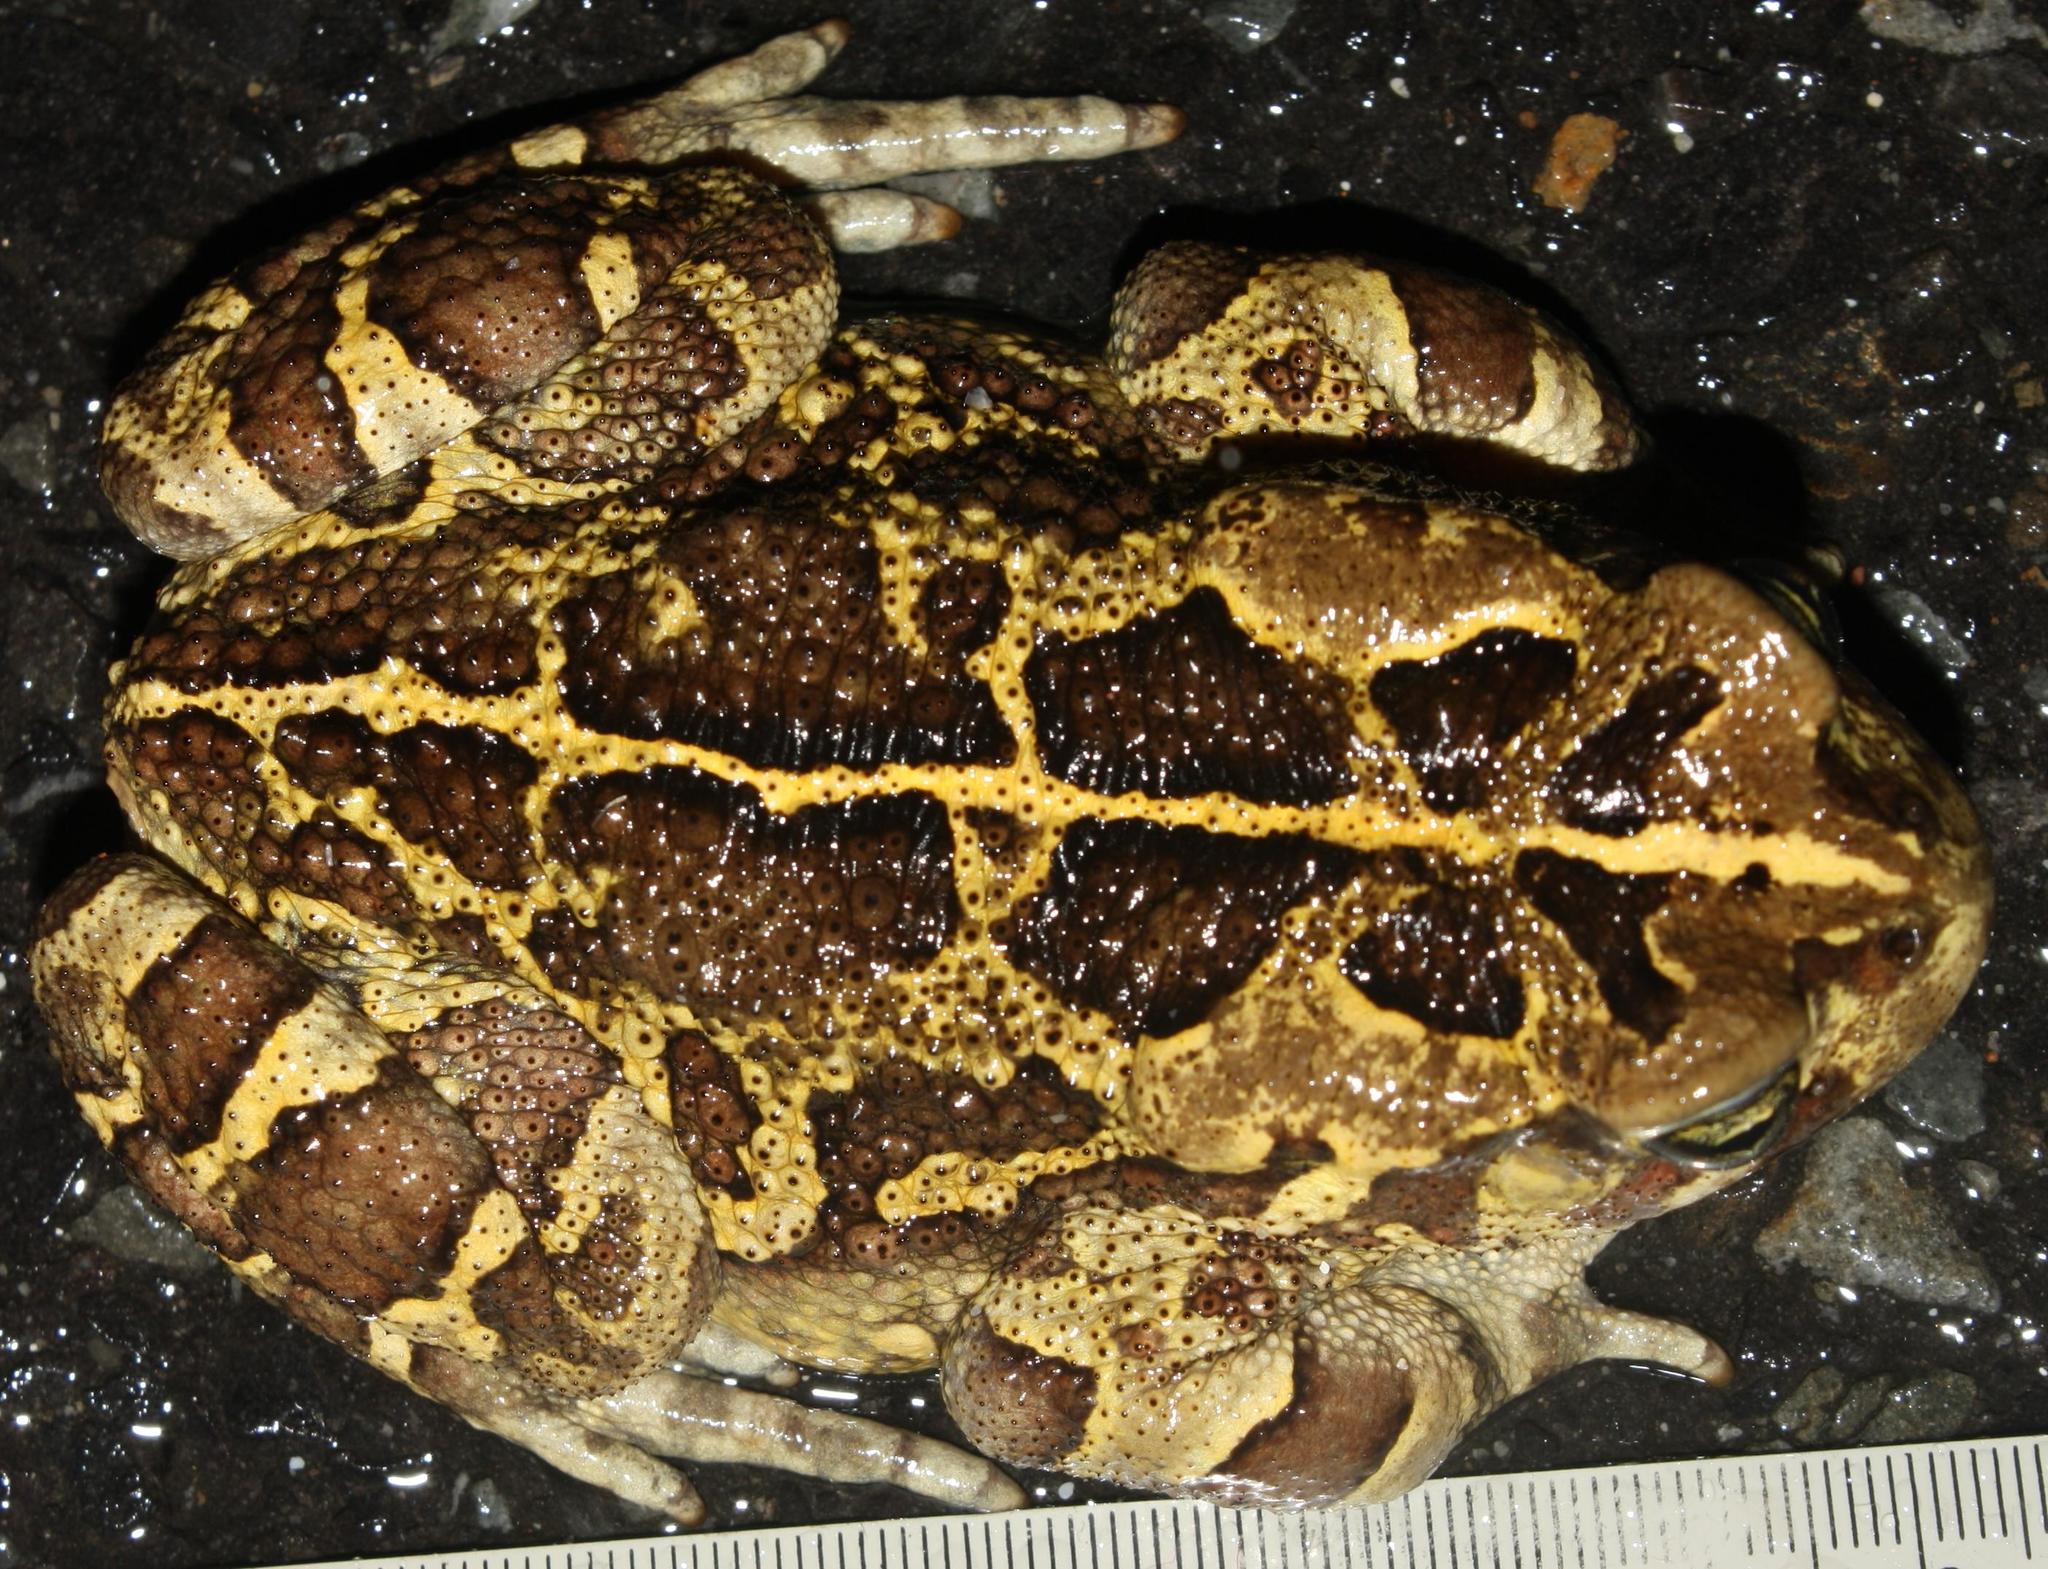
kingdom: Animalia
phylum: Chordata
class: Amphibia
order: Anura
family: Bufonidae
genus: Sclerophrys
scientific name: Sclerophrys pantherina
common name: Panther toad
